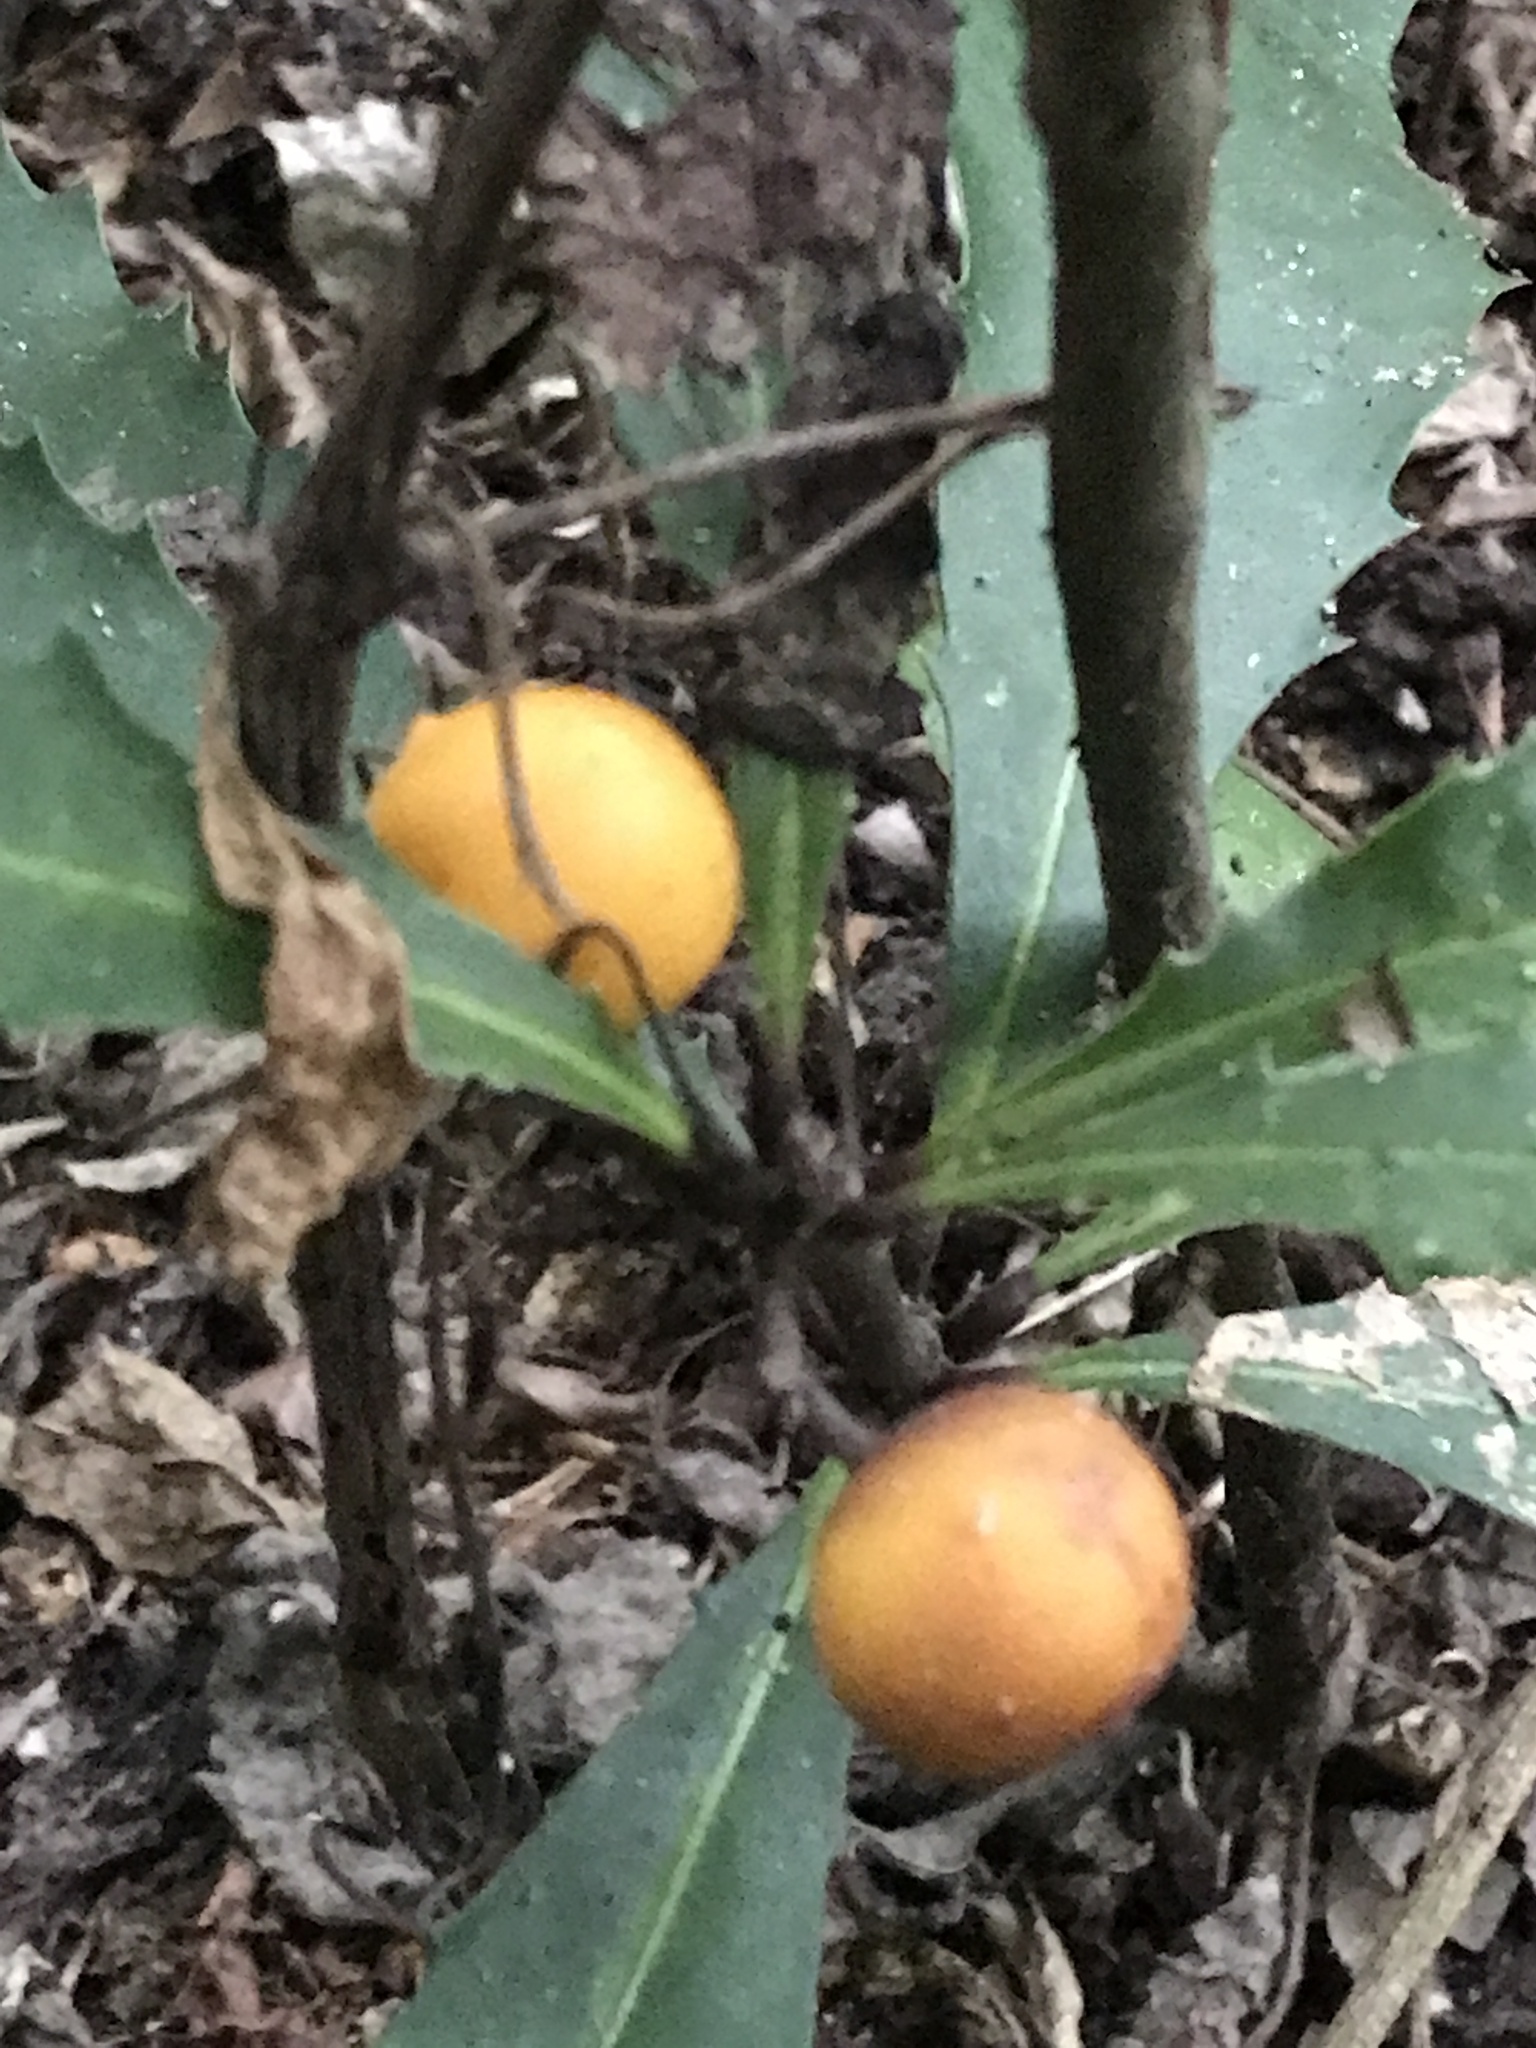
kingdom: Plantae
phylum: Tracheophyta
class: Magnoliopsida
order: Ericales
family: Primulaceae
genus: Clavija
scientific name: Clavija pungens
